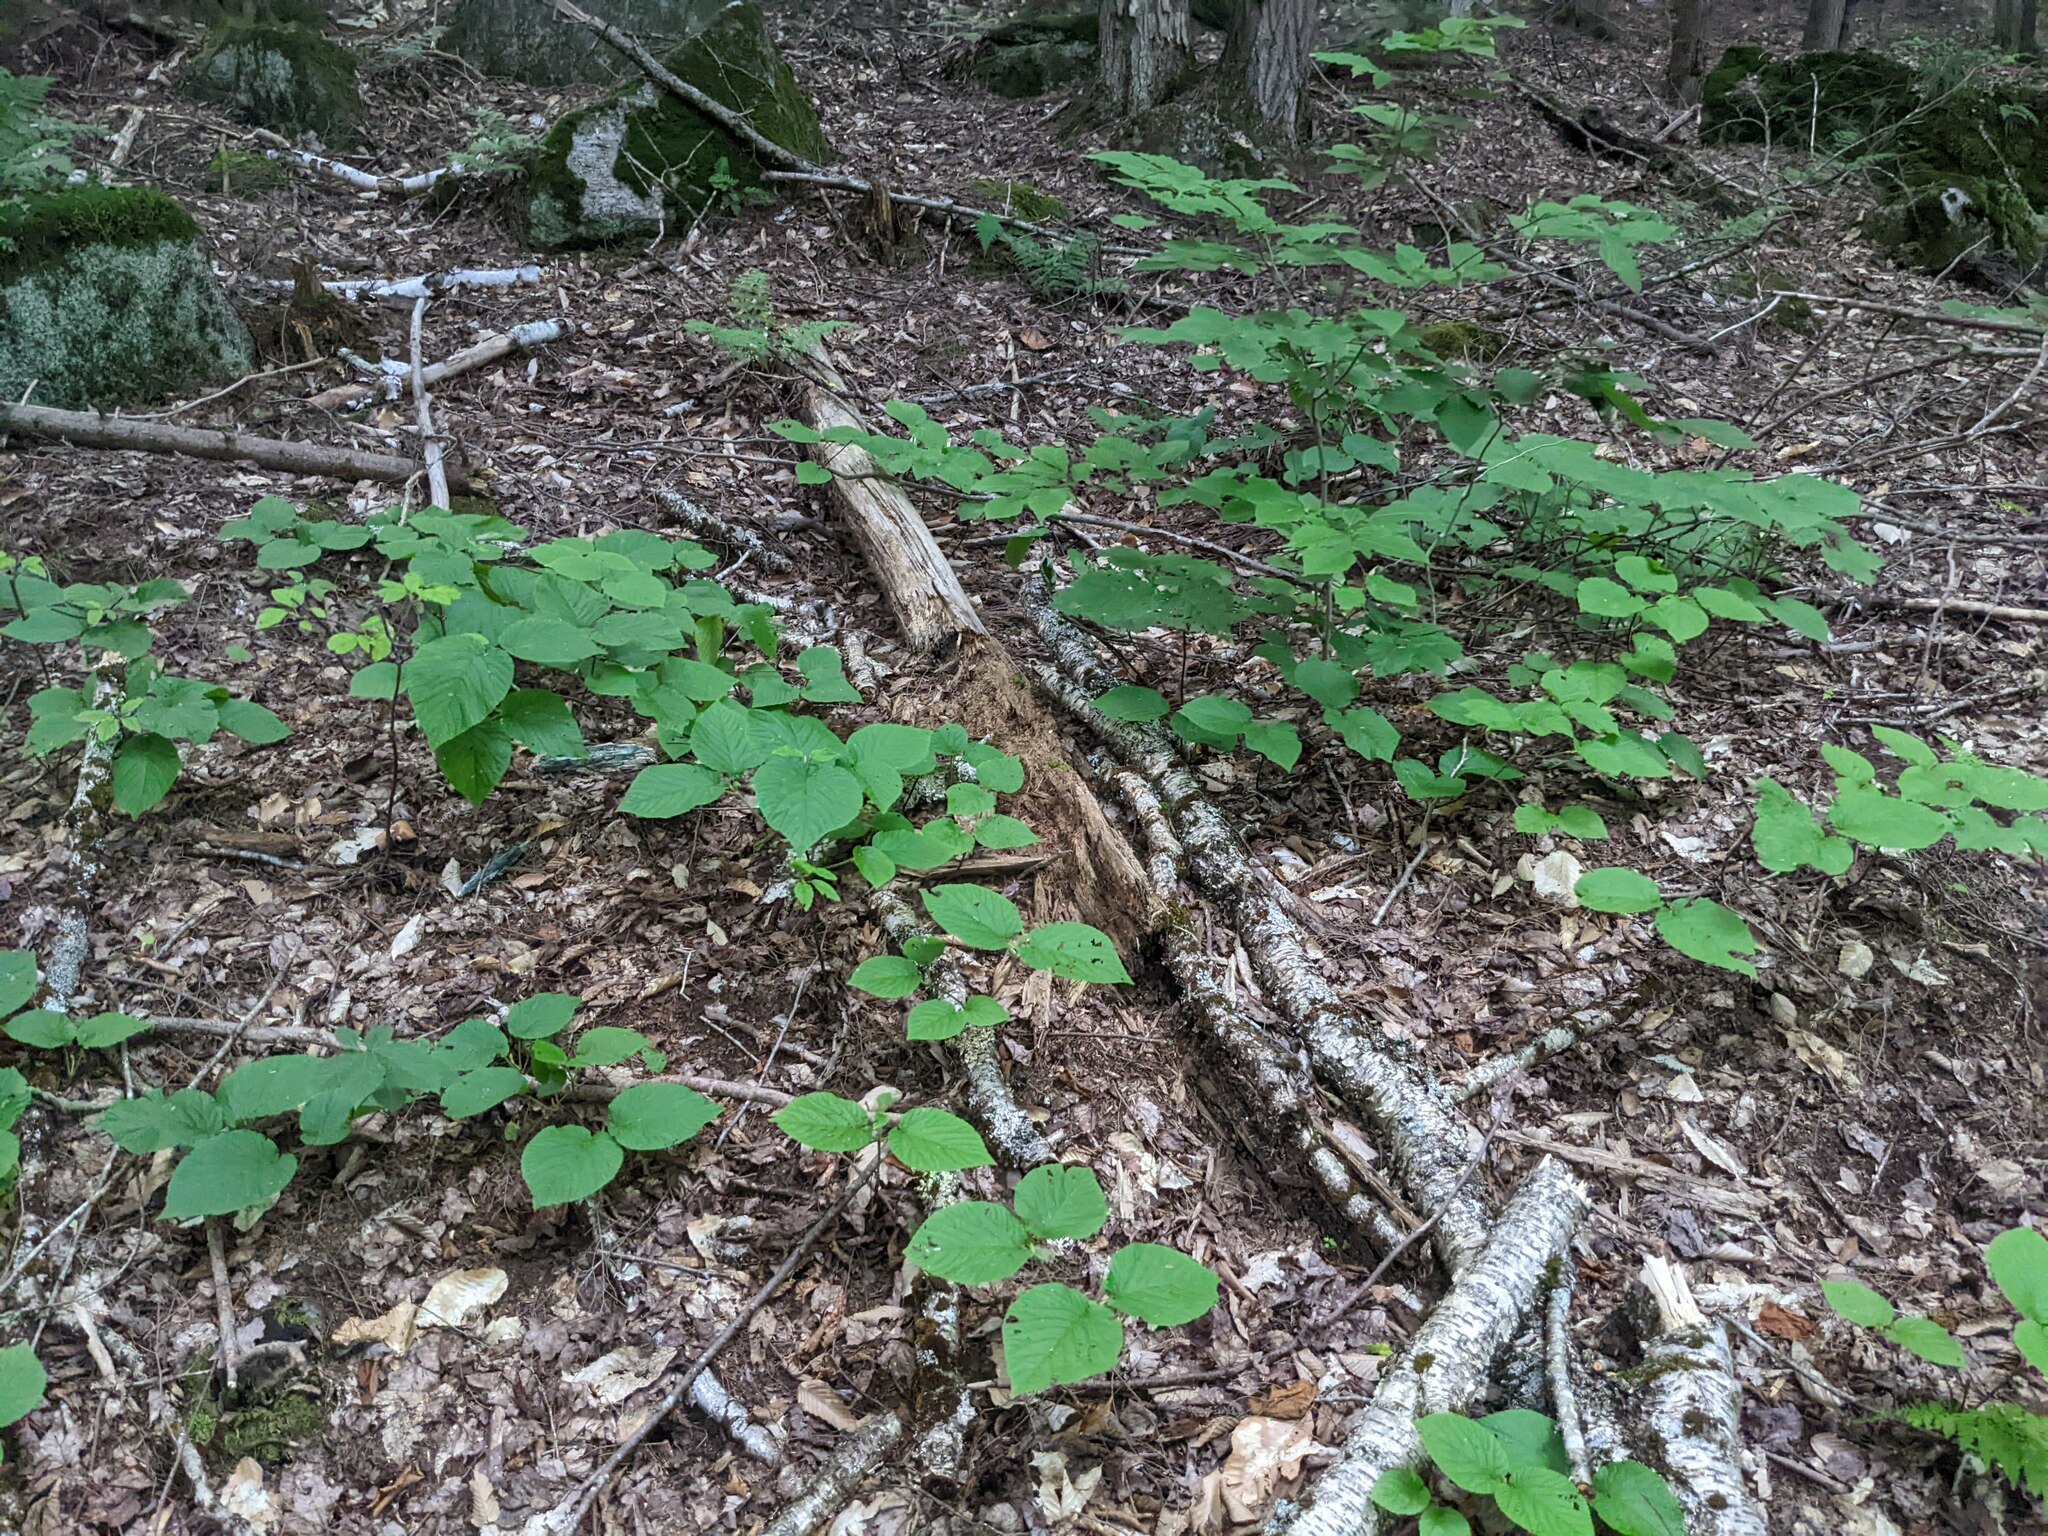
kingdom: Plantae
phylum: Tracheophyta
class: Magnoliopsida
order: Dipsacales
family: Viburnaceae
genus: Viburnum
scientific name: Viburnum lantanoides
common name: Hobblebush
